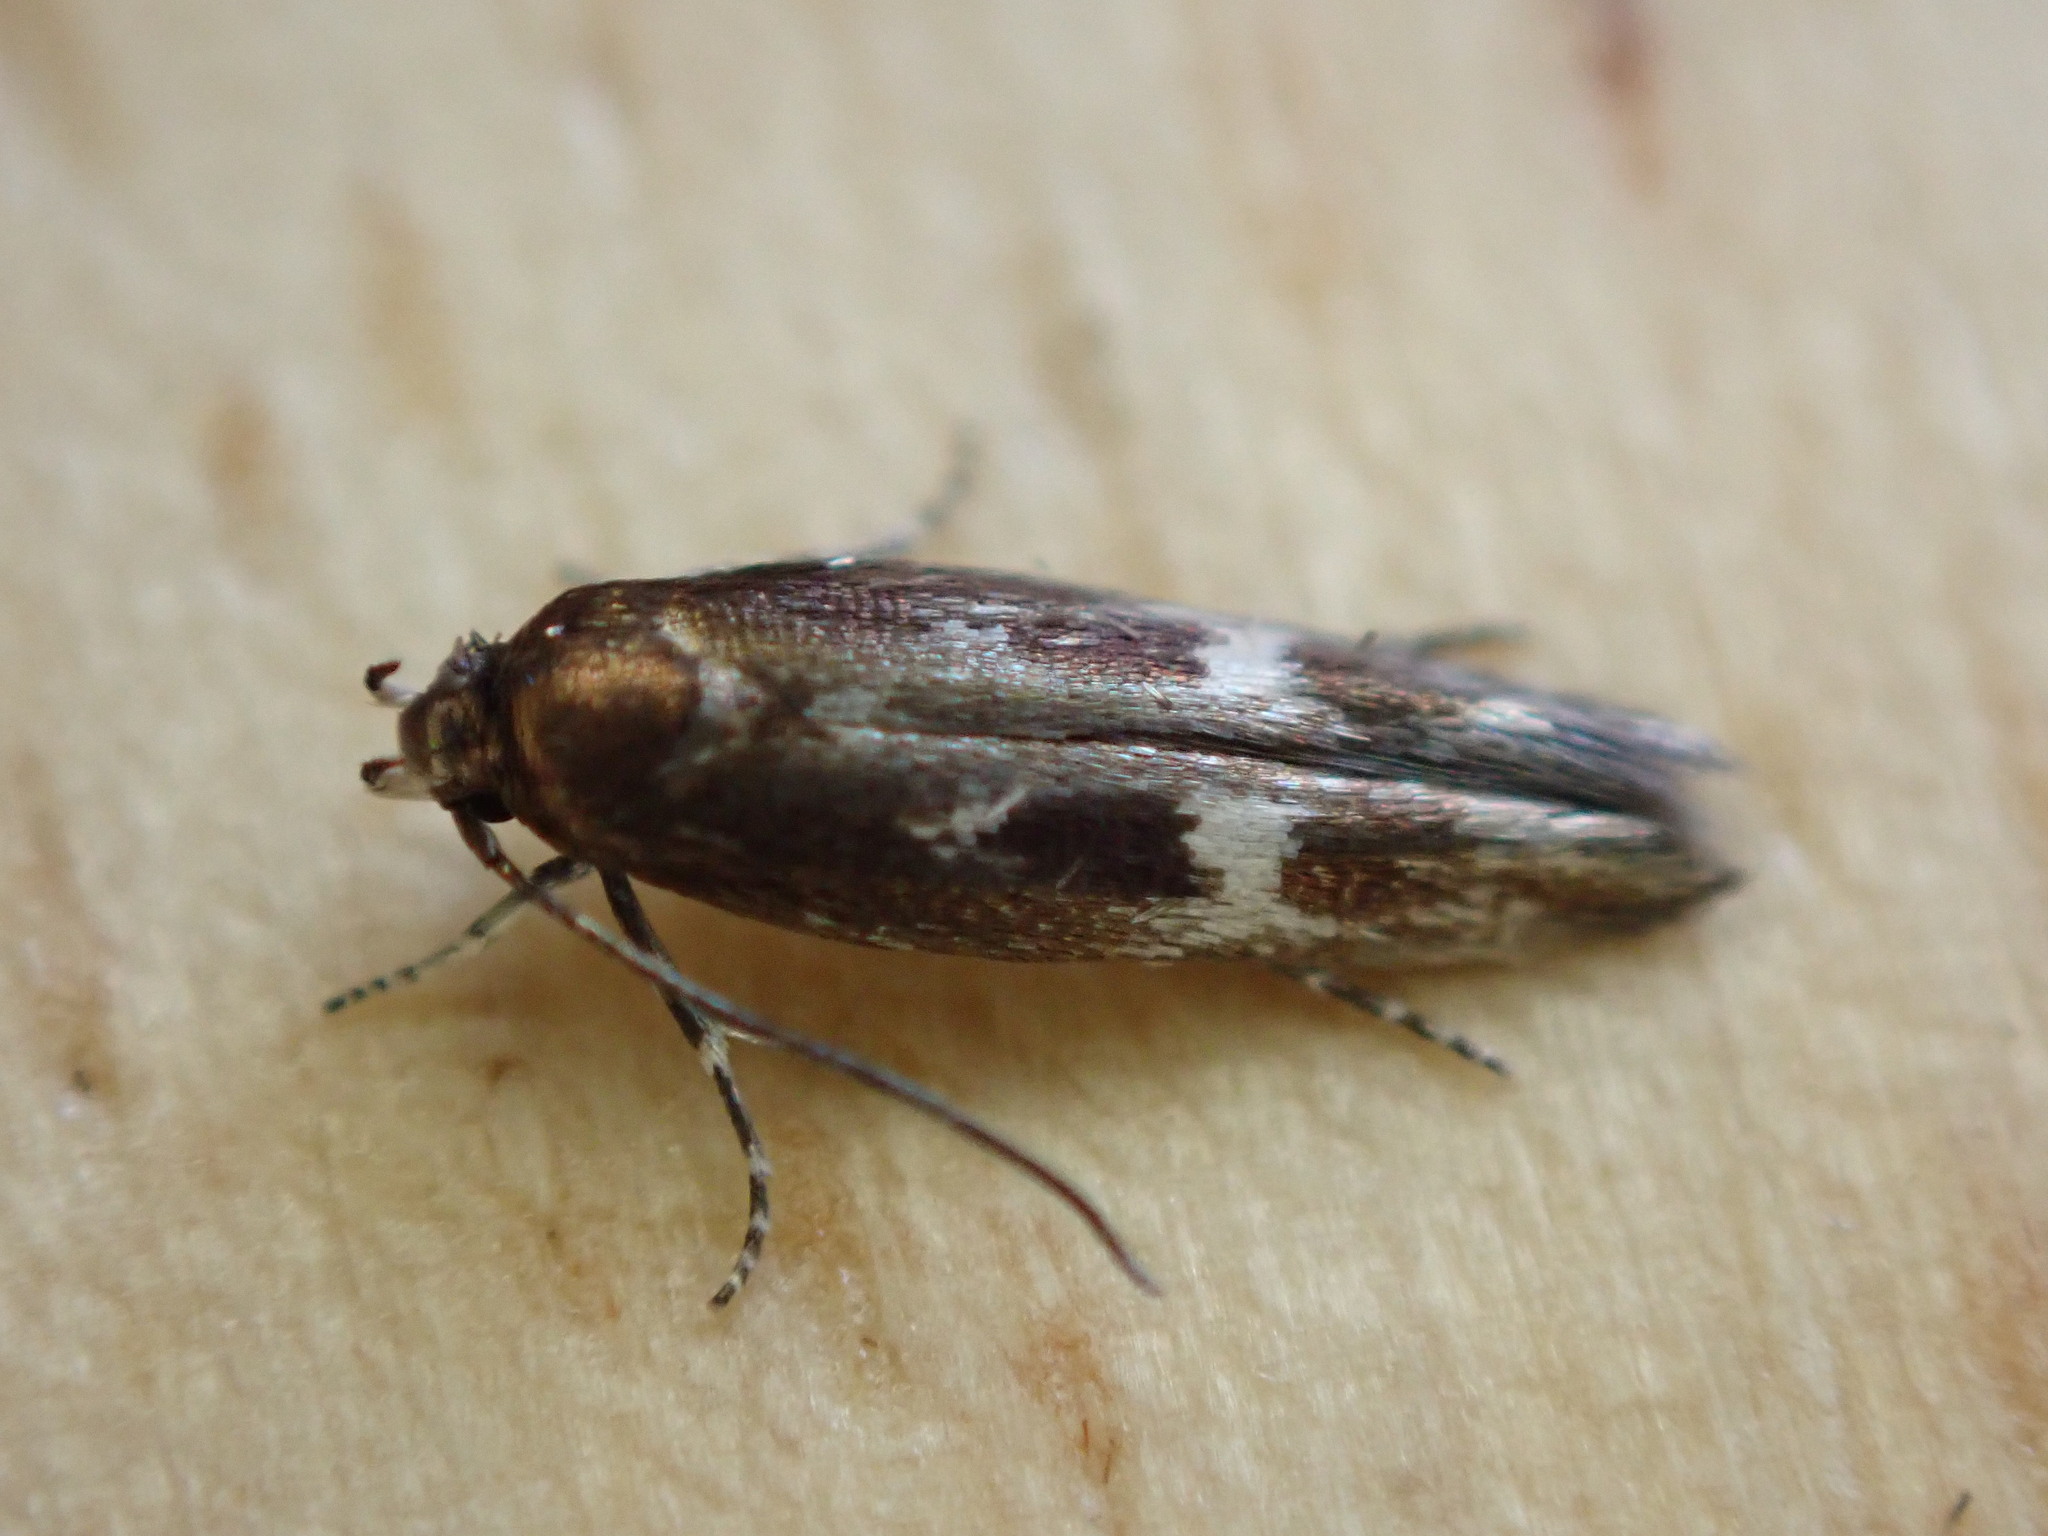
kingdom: Animalia
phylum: Arthropoda
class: Insecta
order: Lepidoptera
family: Momphidae
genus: Mompha
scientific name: Mompha langiella
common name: Clouded cosmet
